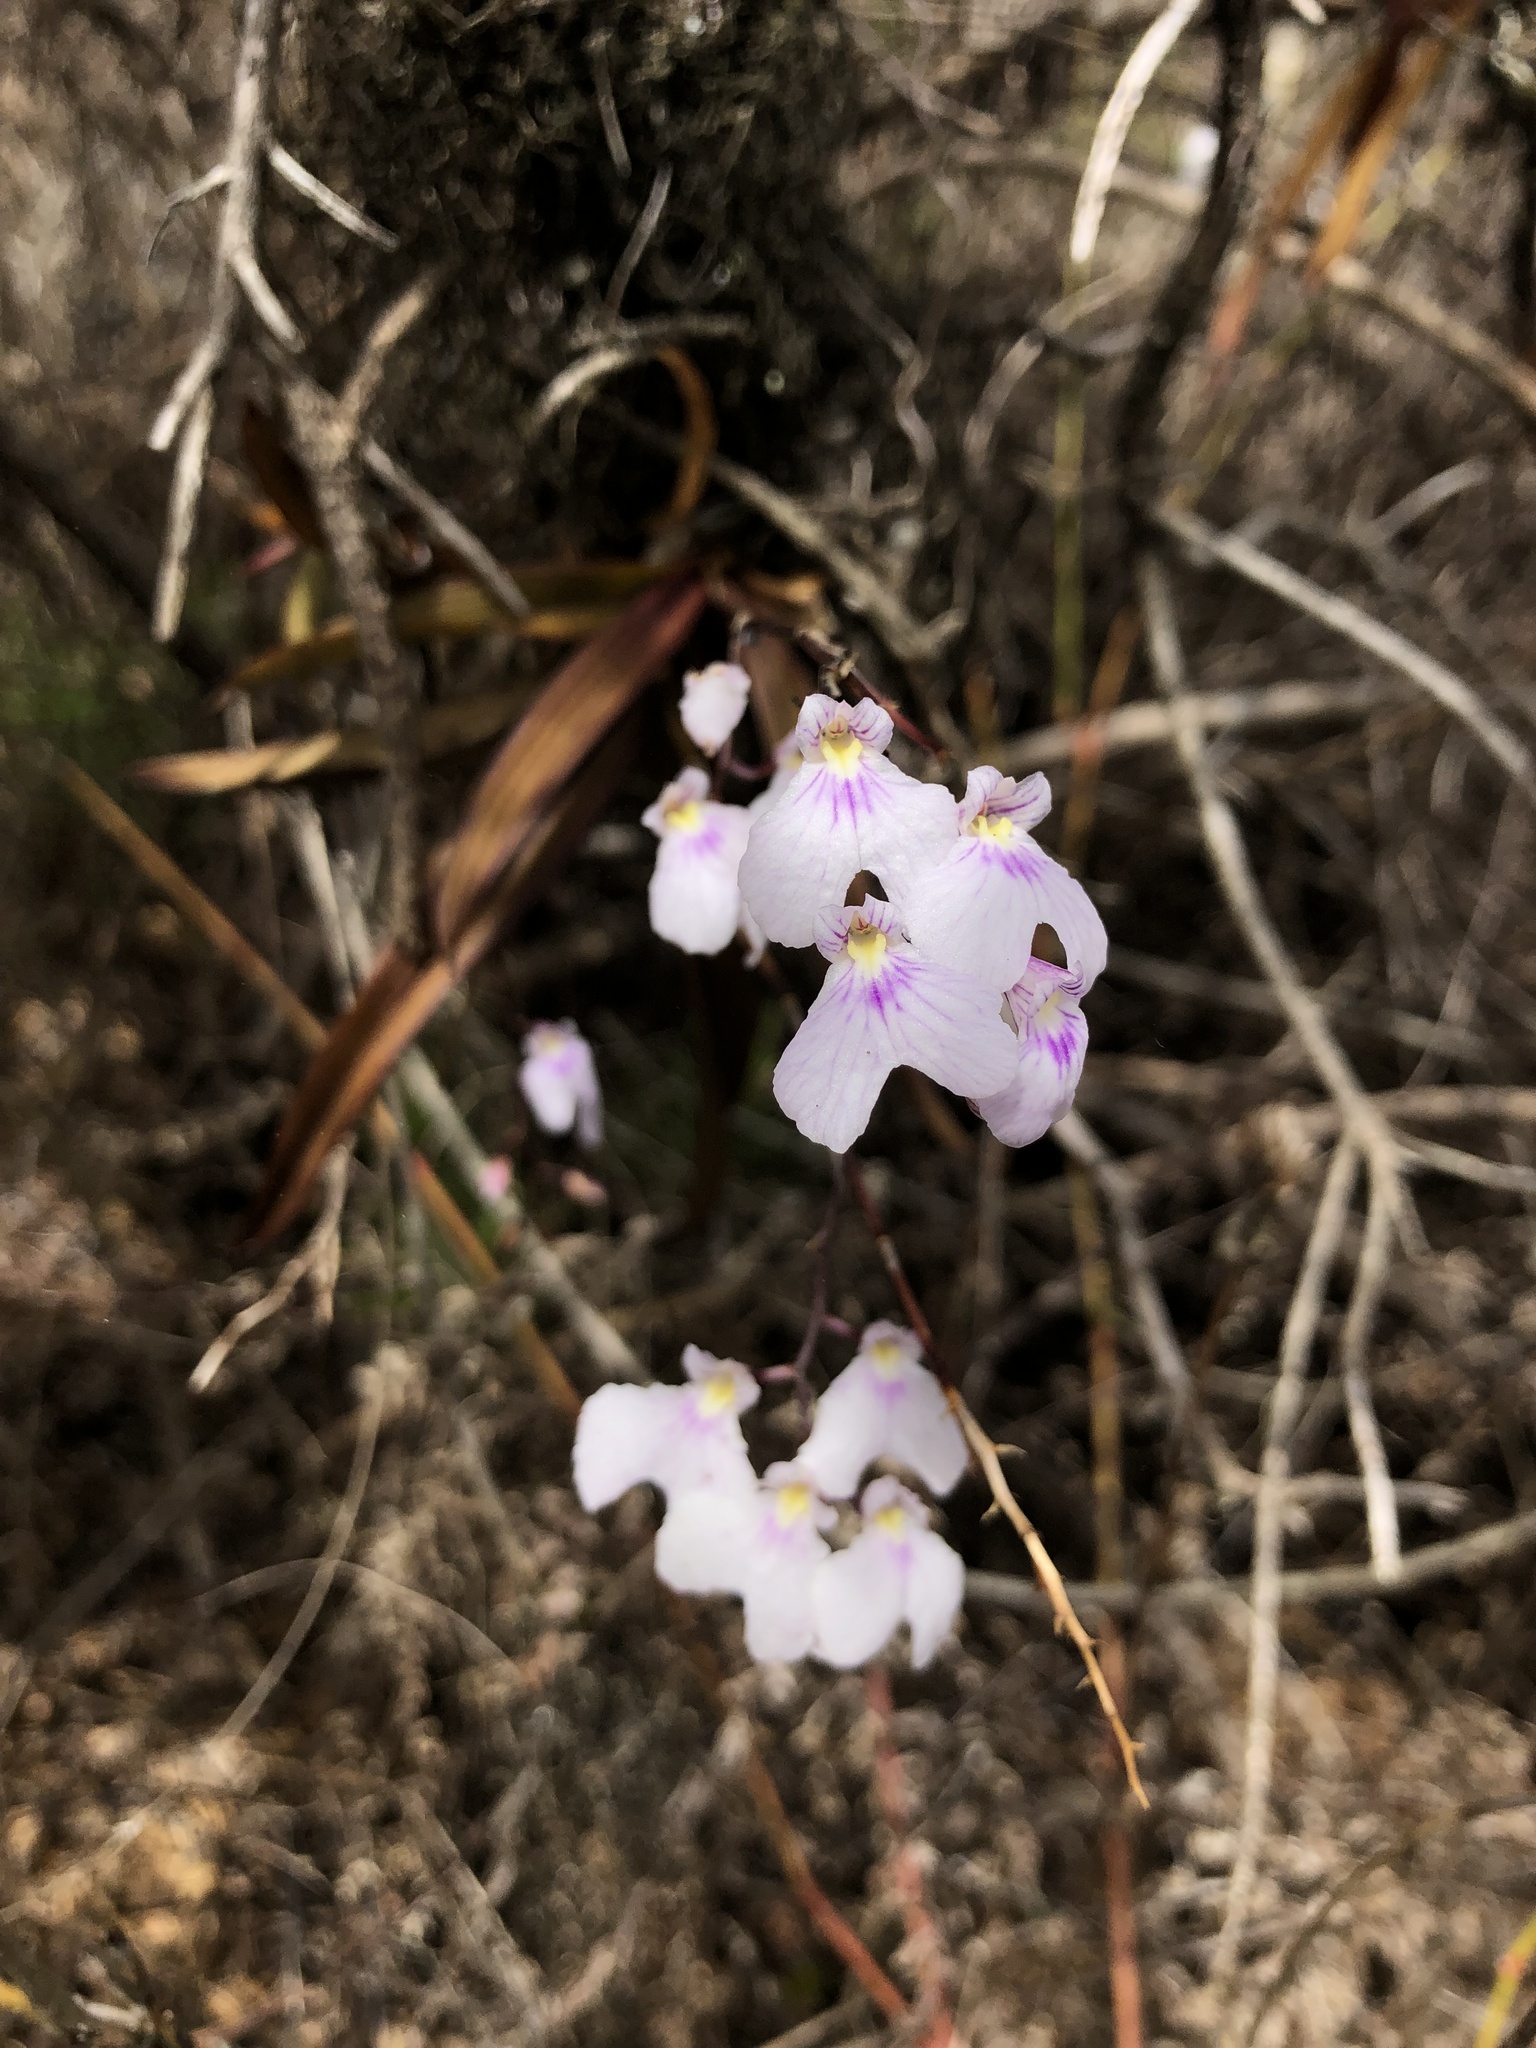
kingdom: Plantae
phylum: Tracheophyta
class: Liliopsida
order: Asparagales
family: Orchidaceae
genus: Ionopsis
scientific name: Ionopsis utricularioides
